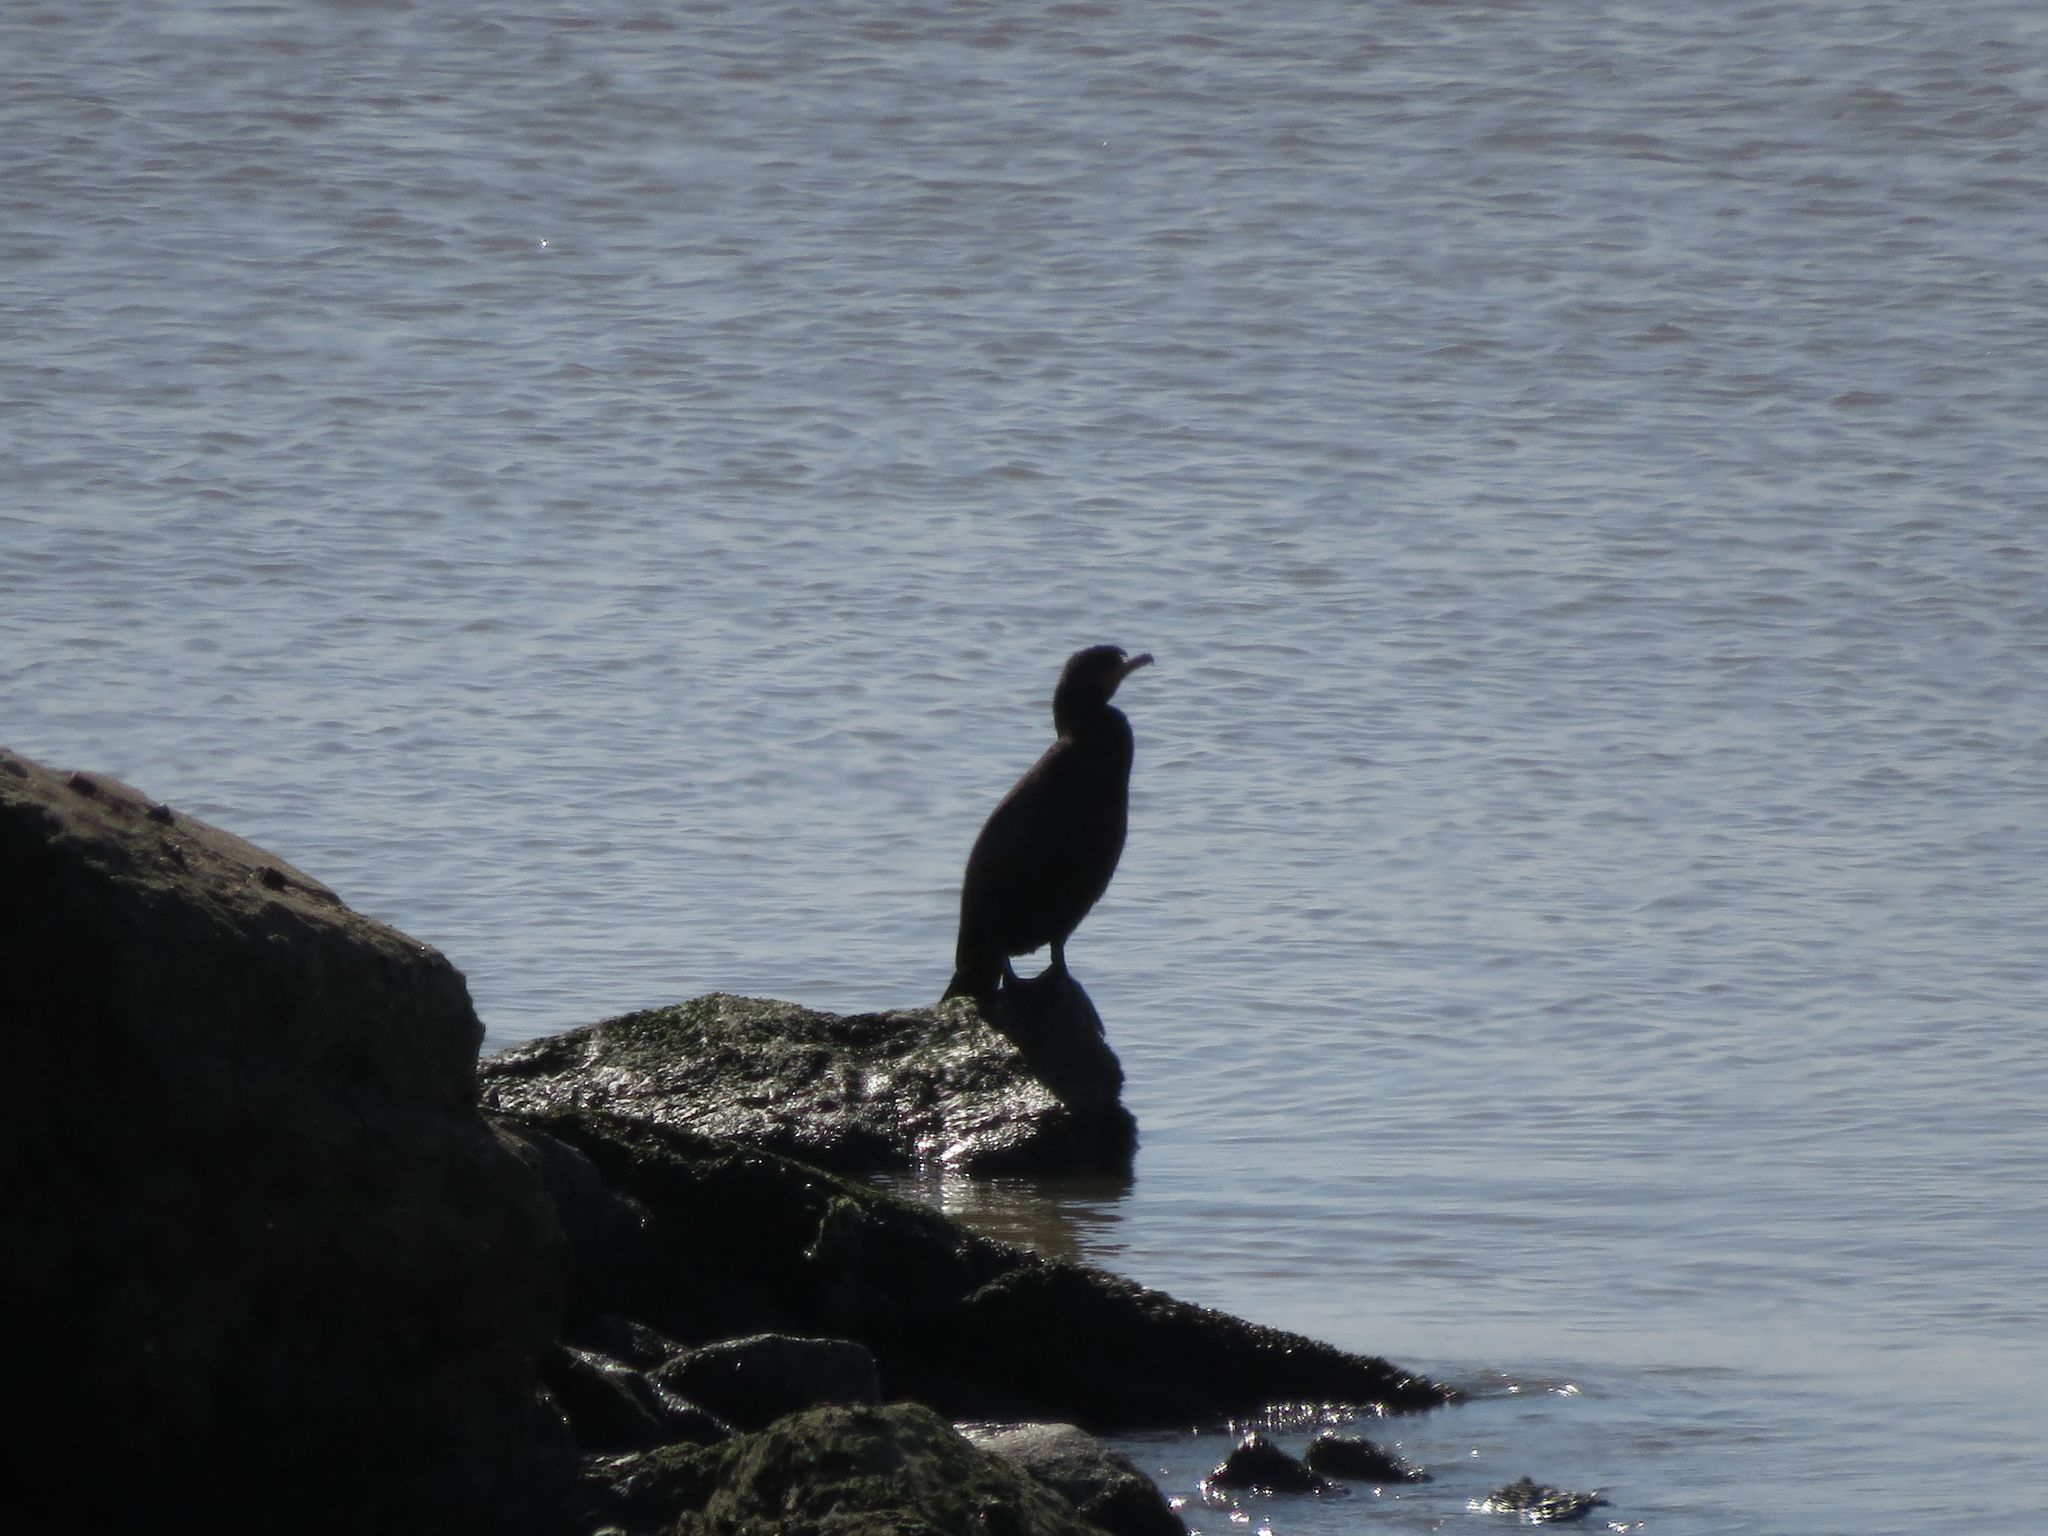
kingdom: Animalia
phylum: Chordata
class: Aves
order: Suliformes
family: Phalacrocoracidae
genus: Phalacrocorax
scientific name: Phalacrocorax brasilianus
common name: Neotropic cormorant
